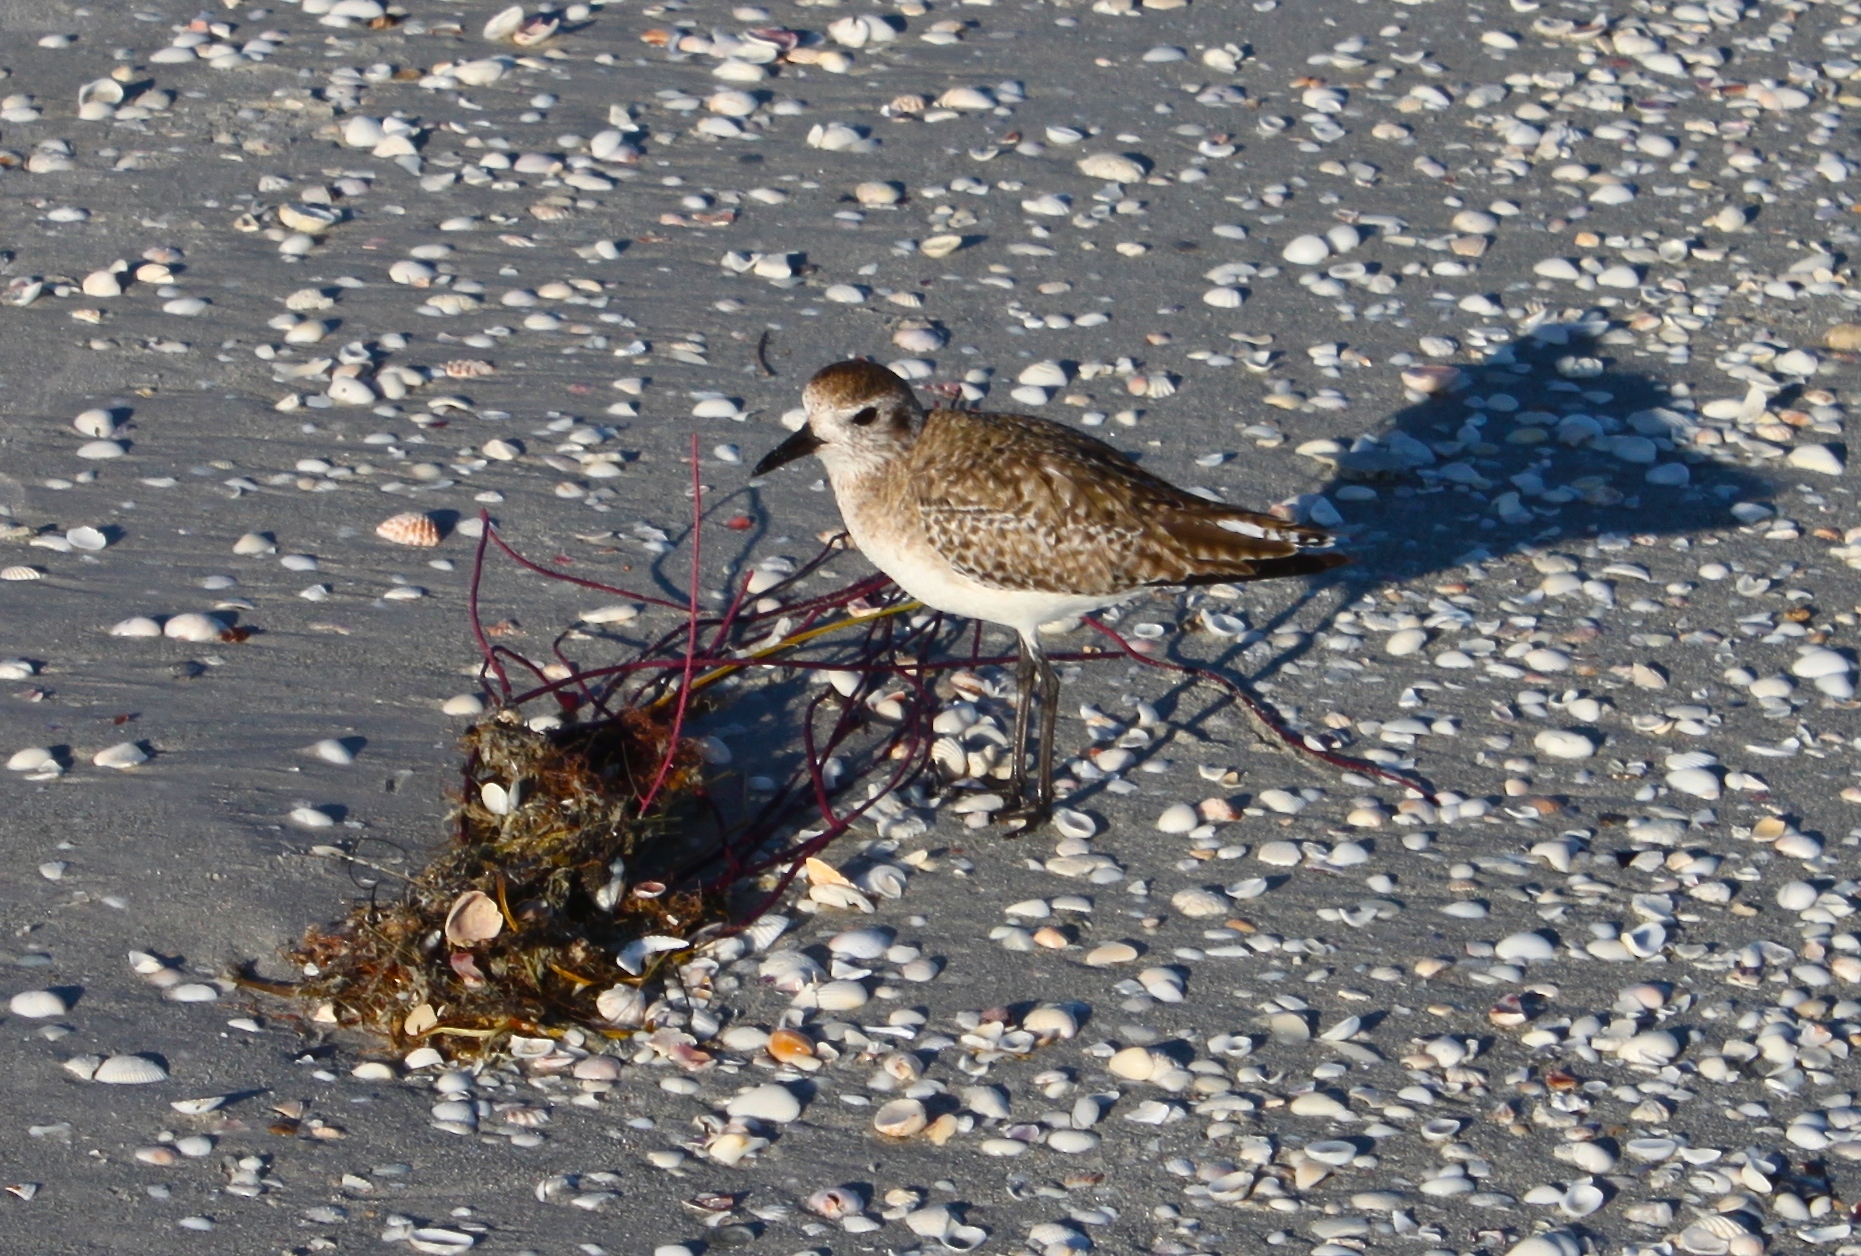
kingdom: Animalia
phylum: Chordata
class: Aves
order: Charadriiformes
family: Charadriidae
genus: Pluvialis
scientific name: Pluvialis squatarola
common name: Grey plover
